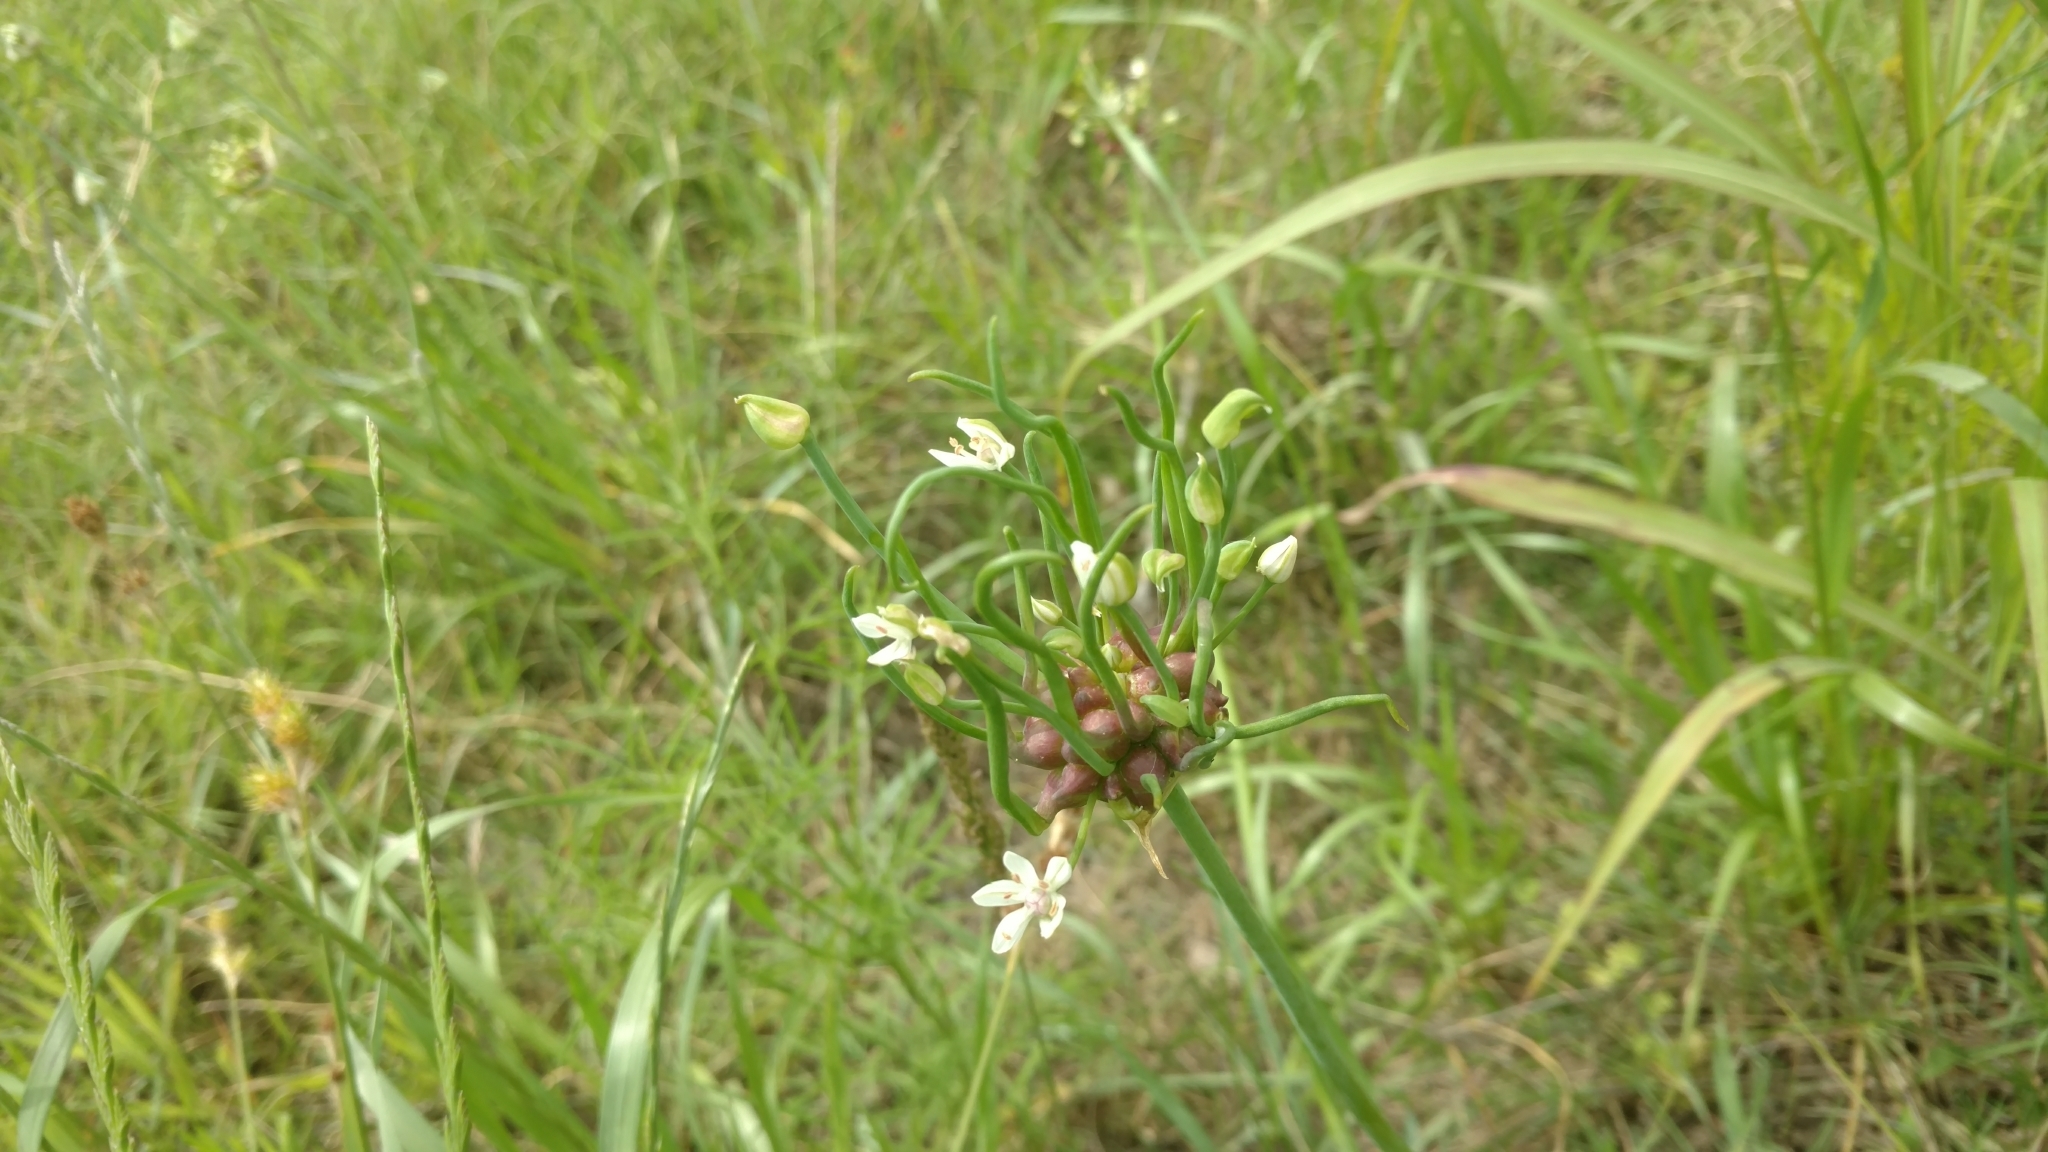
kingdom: Plantae
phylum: Tracheophyta
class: Liliopsida
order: Asparagales
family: Amaryllidaceae
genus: Allium
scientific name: Allium canadense
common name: Meadow garlic
